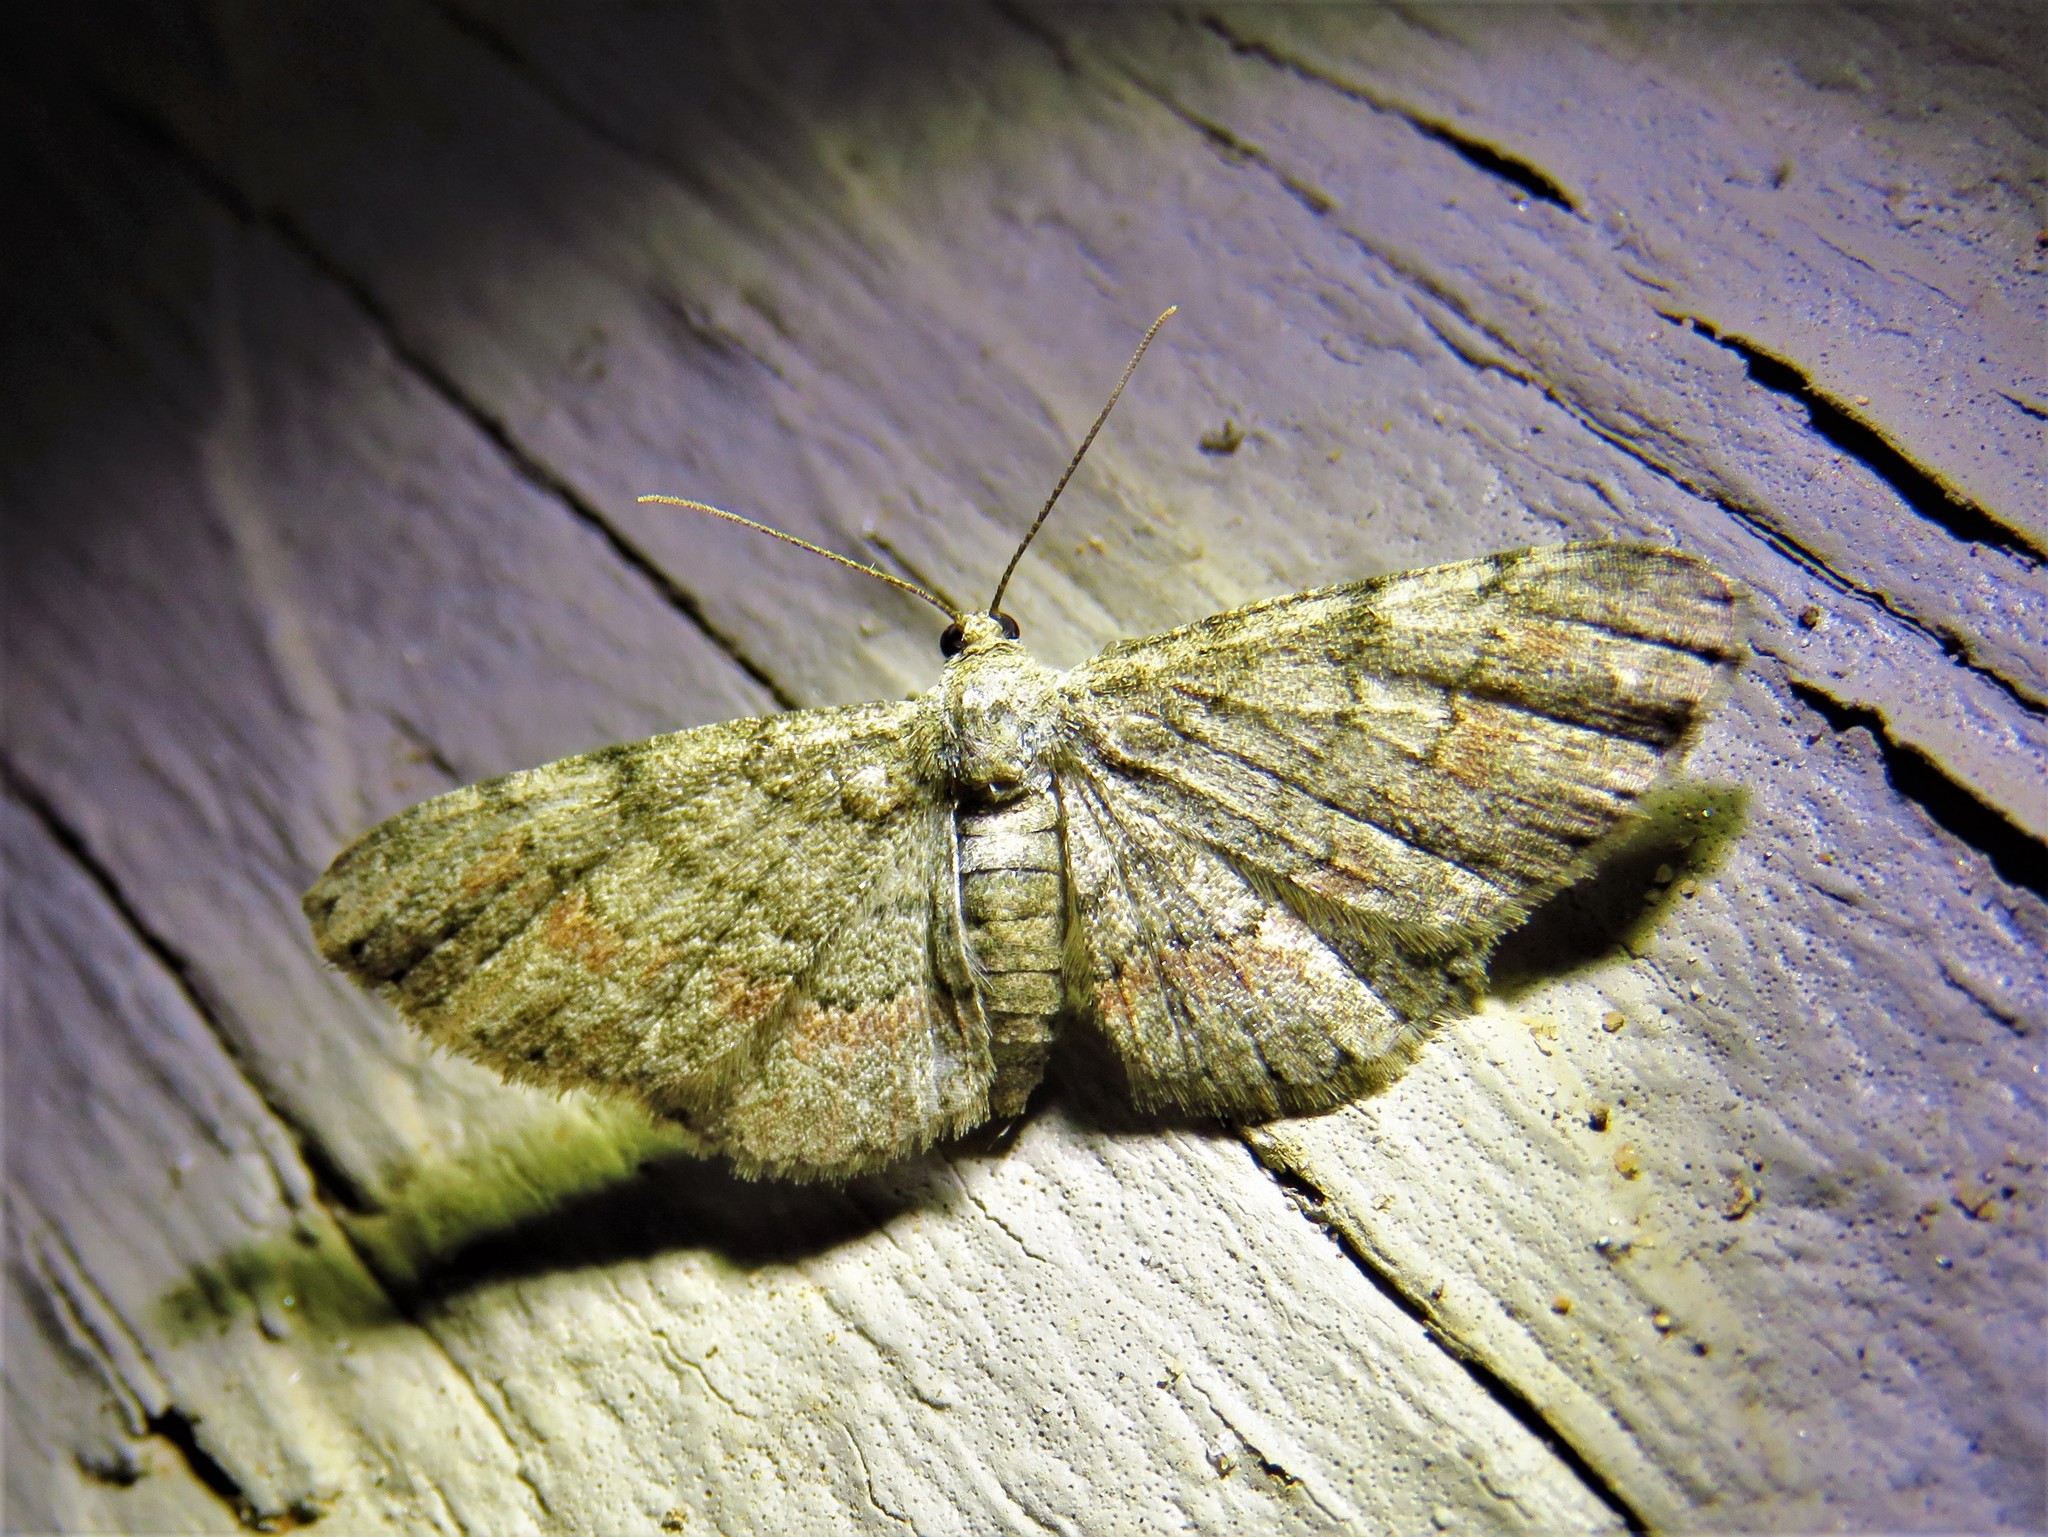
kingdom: Animalia
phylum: Arthropoda
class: Insecta
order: Lepidoptera
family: Geometridae
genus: Glenoides
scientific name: Glenoides texanaria
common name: Texas gray
